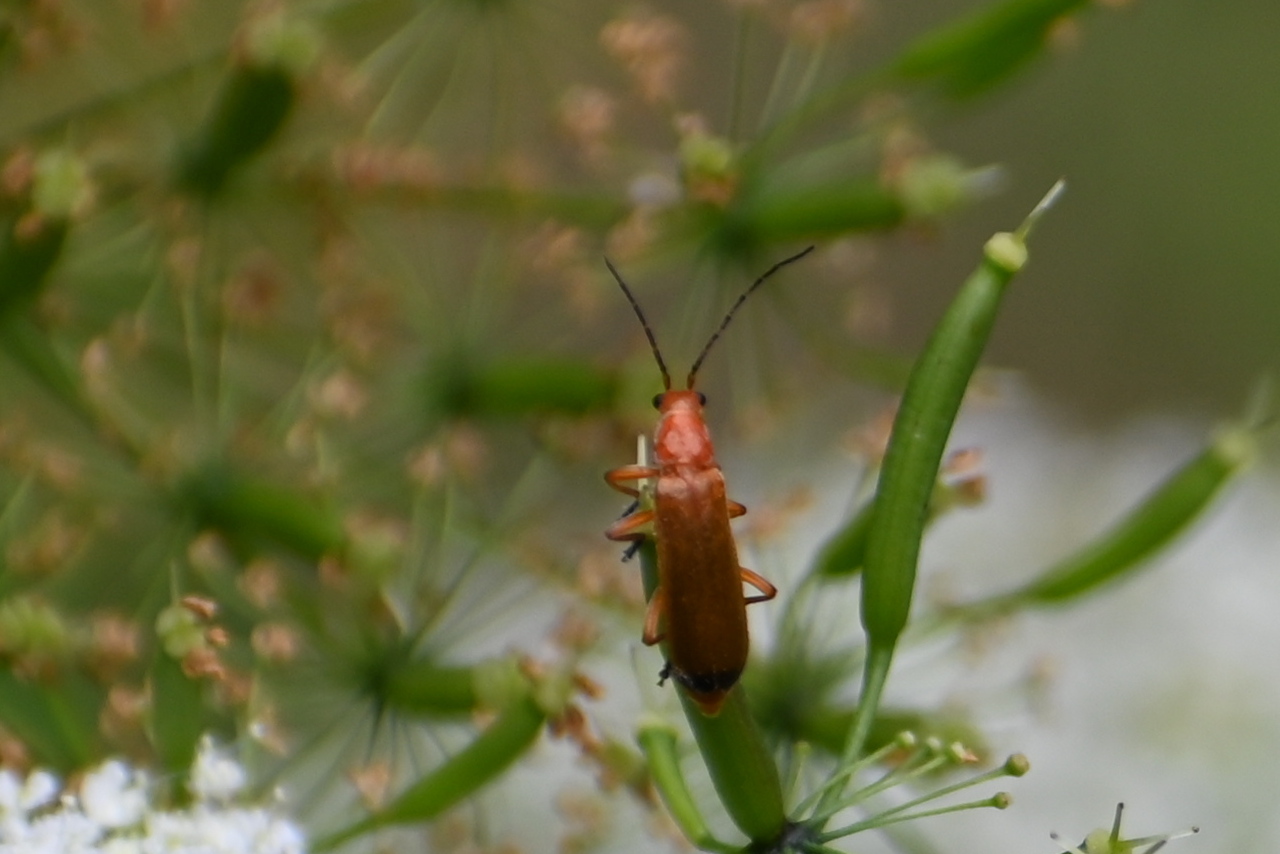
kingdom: Animalia
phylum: Arthropoda
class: Insecta
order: Coleoptera
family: Cantharidae
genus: Rhagonycha
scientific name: Rhagonycha fulva
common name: Common red soldier beetle
